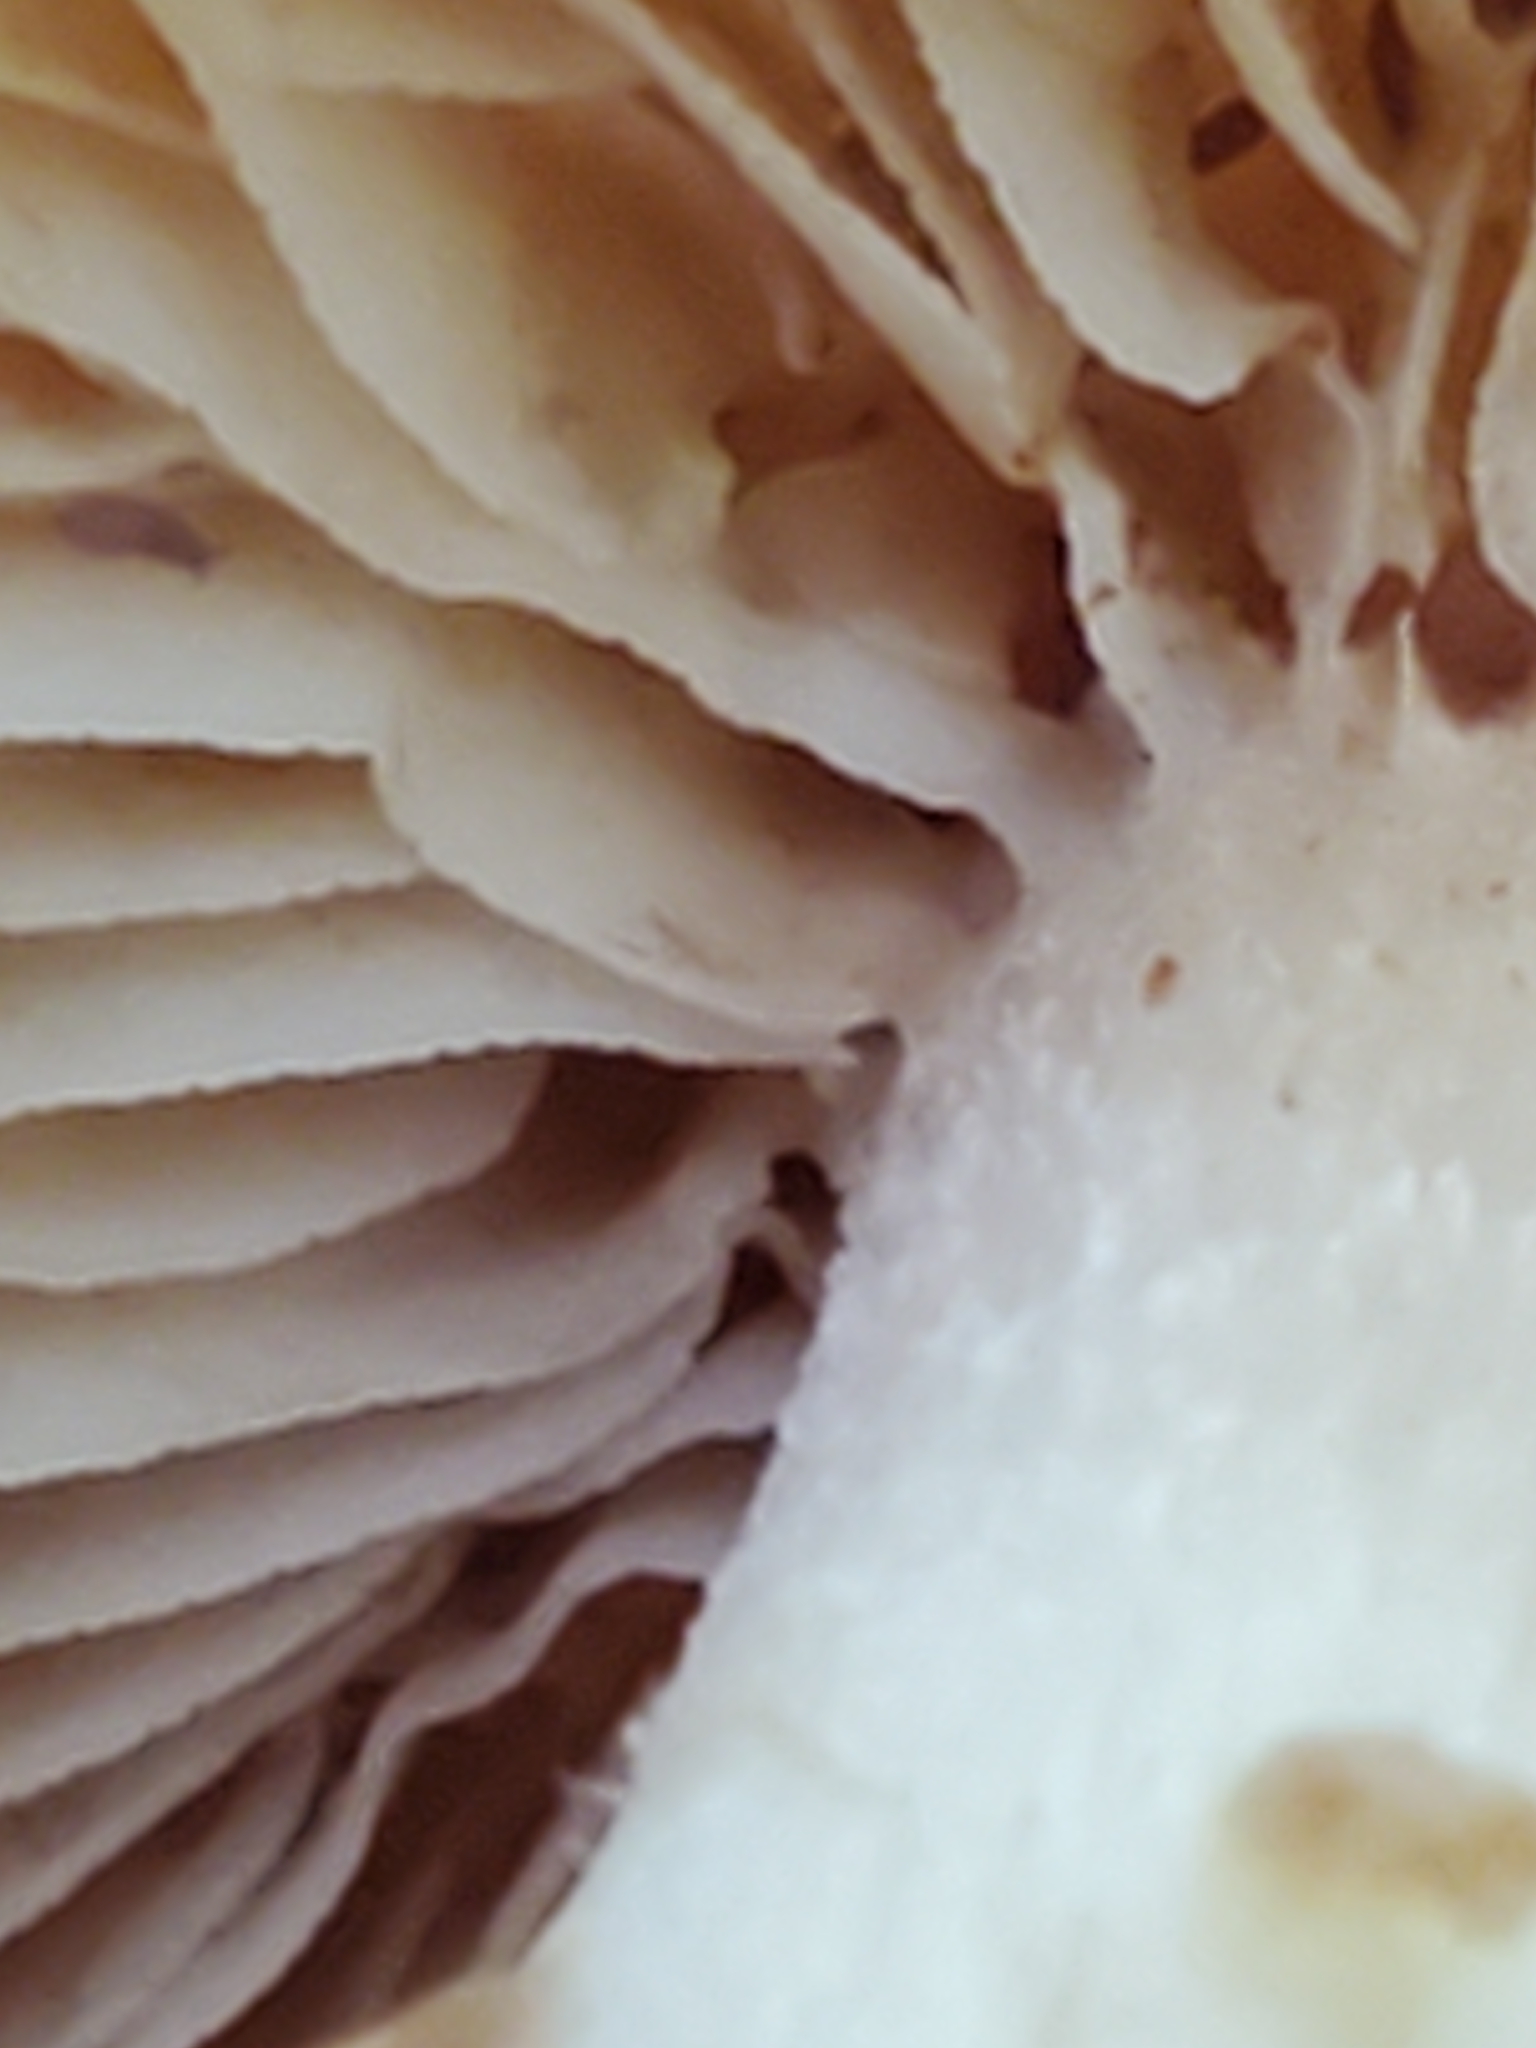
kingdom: Fungi
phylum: Basidiomycota
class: Agaricomycetes
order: Agaricales
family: Strophariaceae
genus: Kuehneromyces
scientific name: Kuehneromyces marginellus
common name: Sheathed woodtuft
